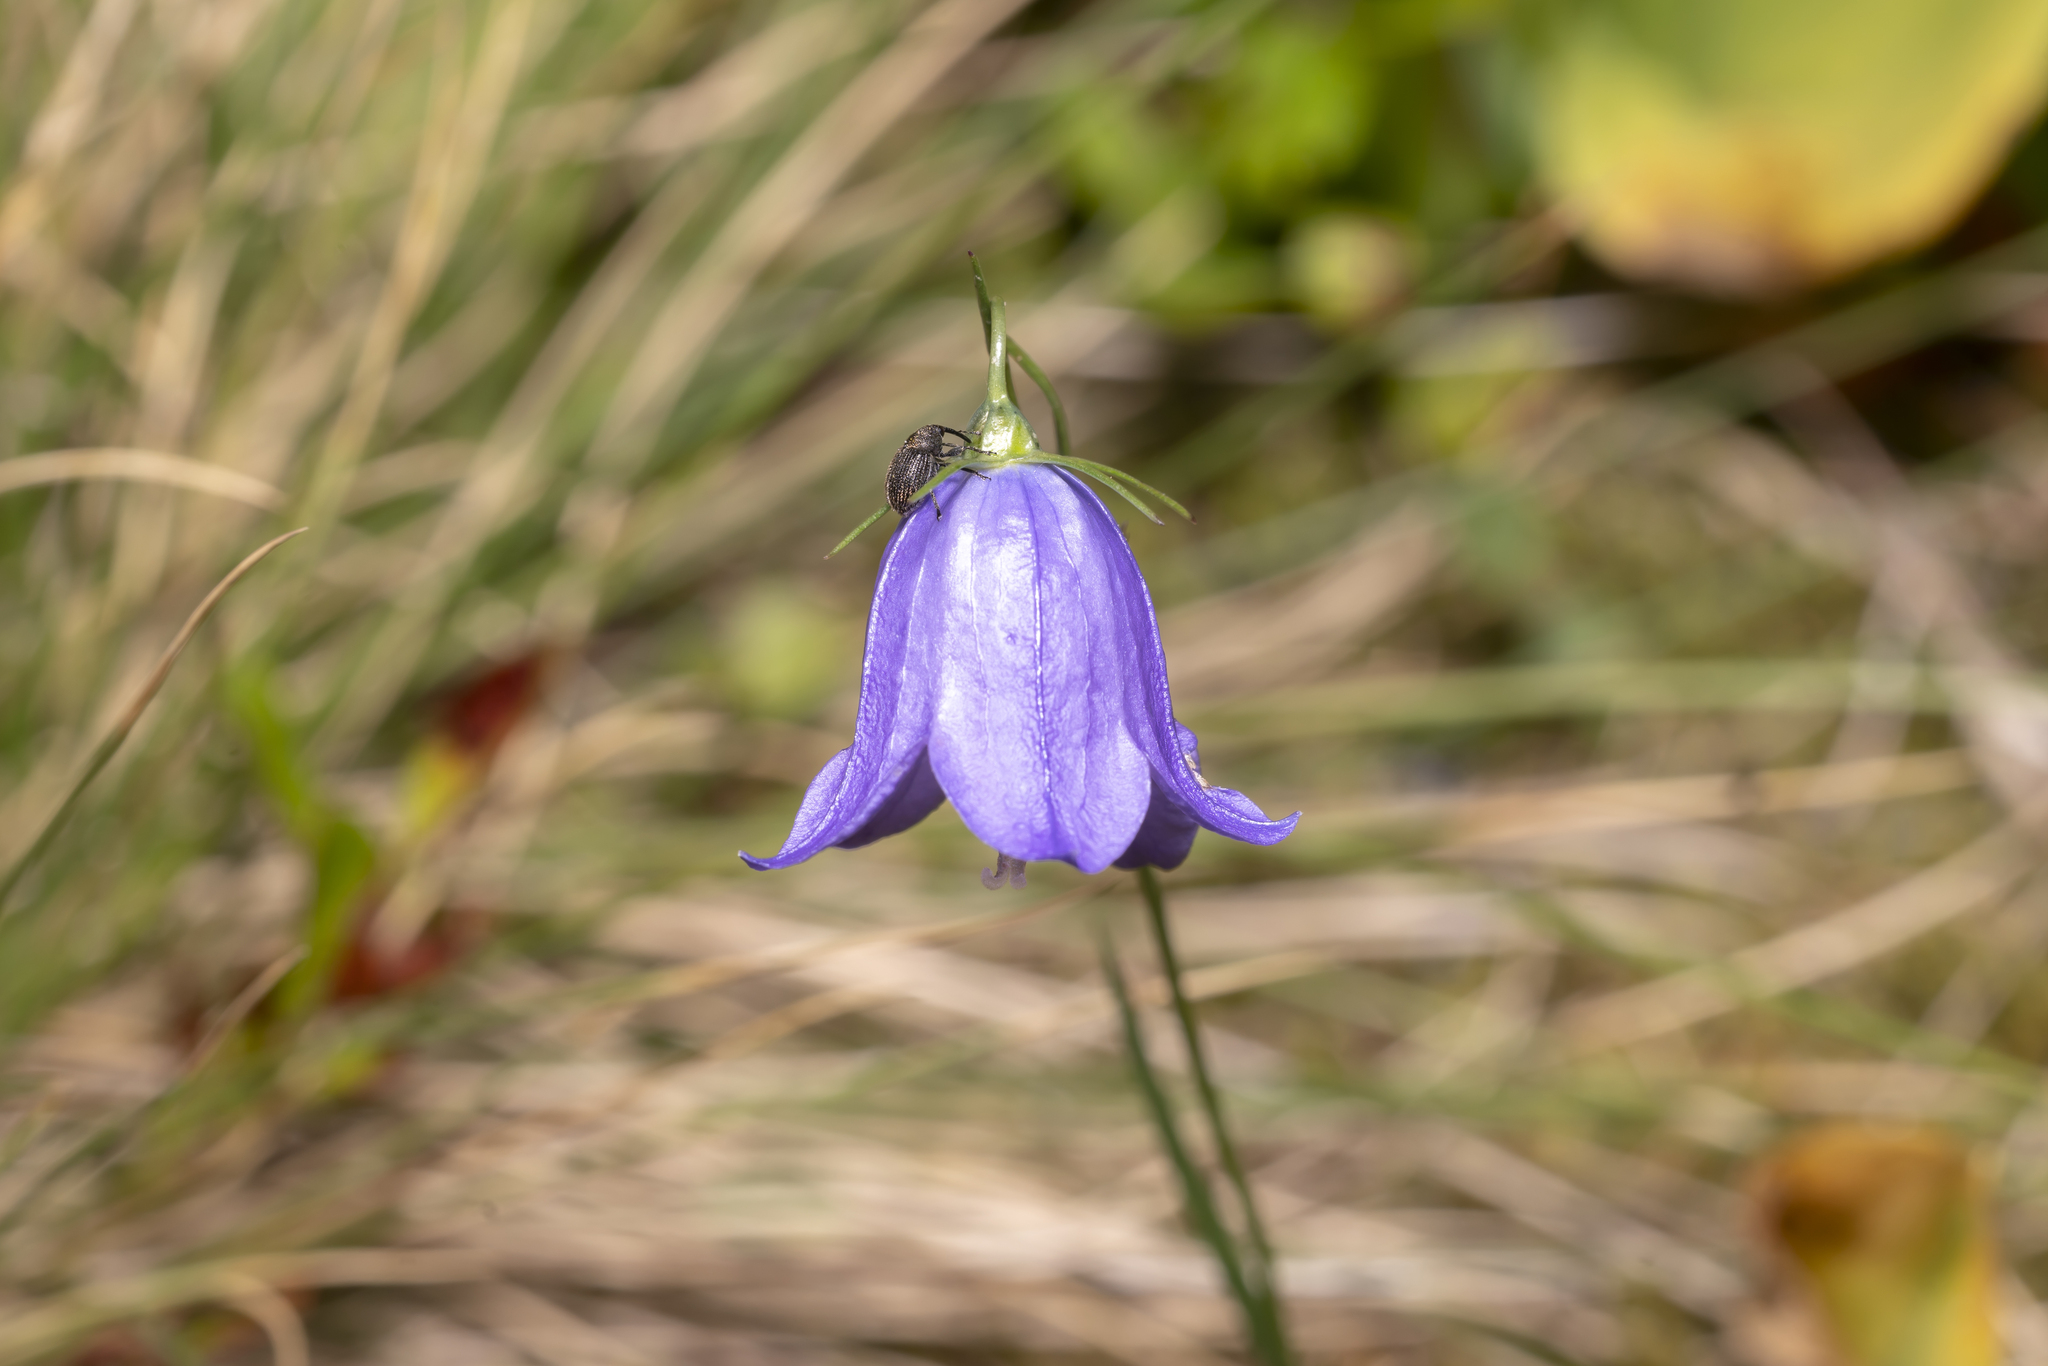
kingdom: Plantae
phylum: Tracheophyta
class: Magnoliopsida
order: Asterales
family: Campanulaceae
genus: Campanula
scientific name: Campanula scheuchzeri
